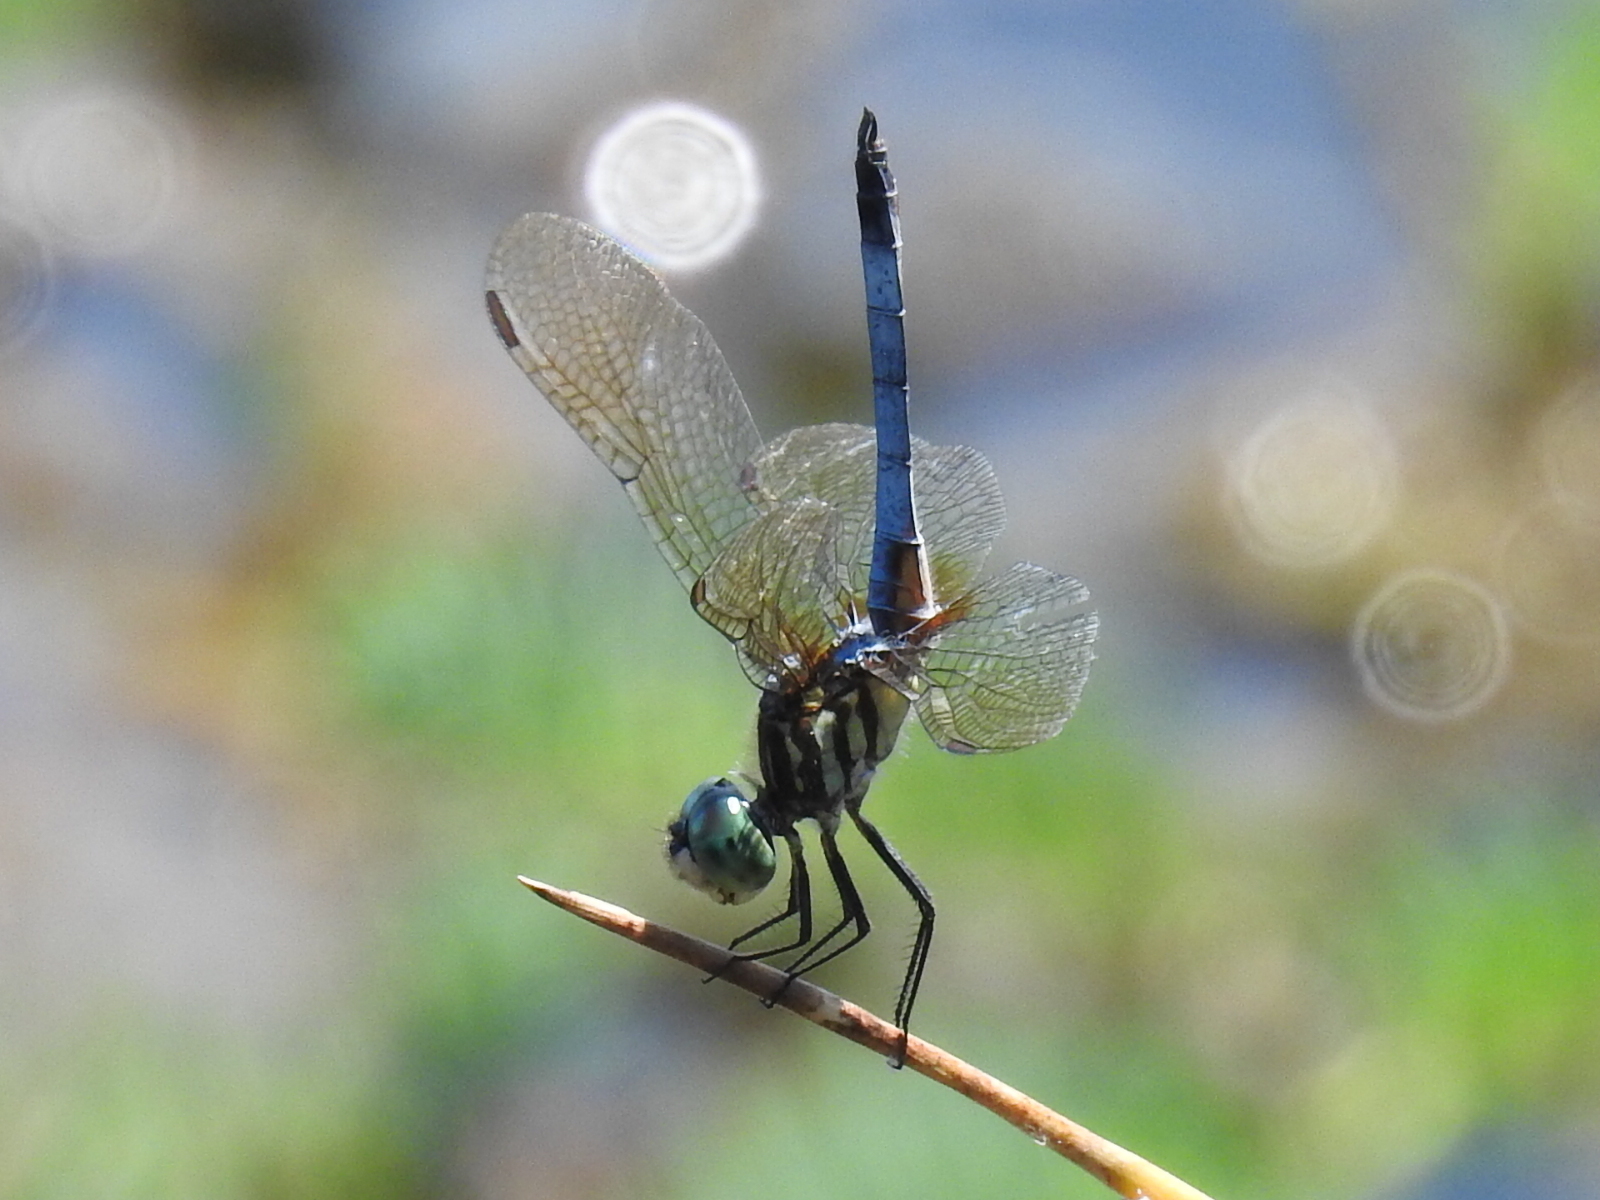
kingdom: Animalia
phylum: Arthropoda
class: Insecta
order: Odonata
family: Libellulidae
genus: Pachydiplax
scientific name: Pachydiplax longipennis
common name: Blue dasher
